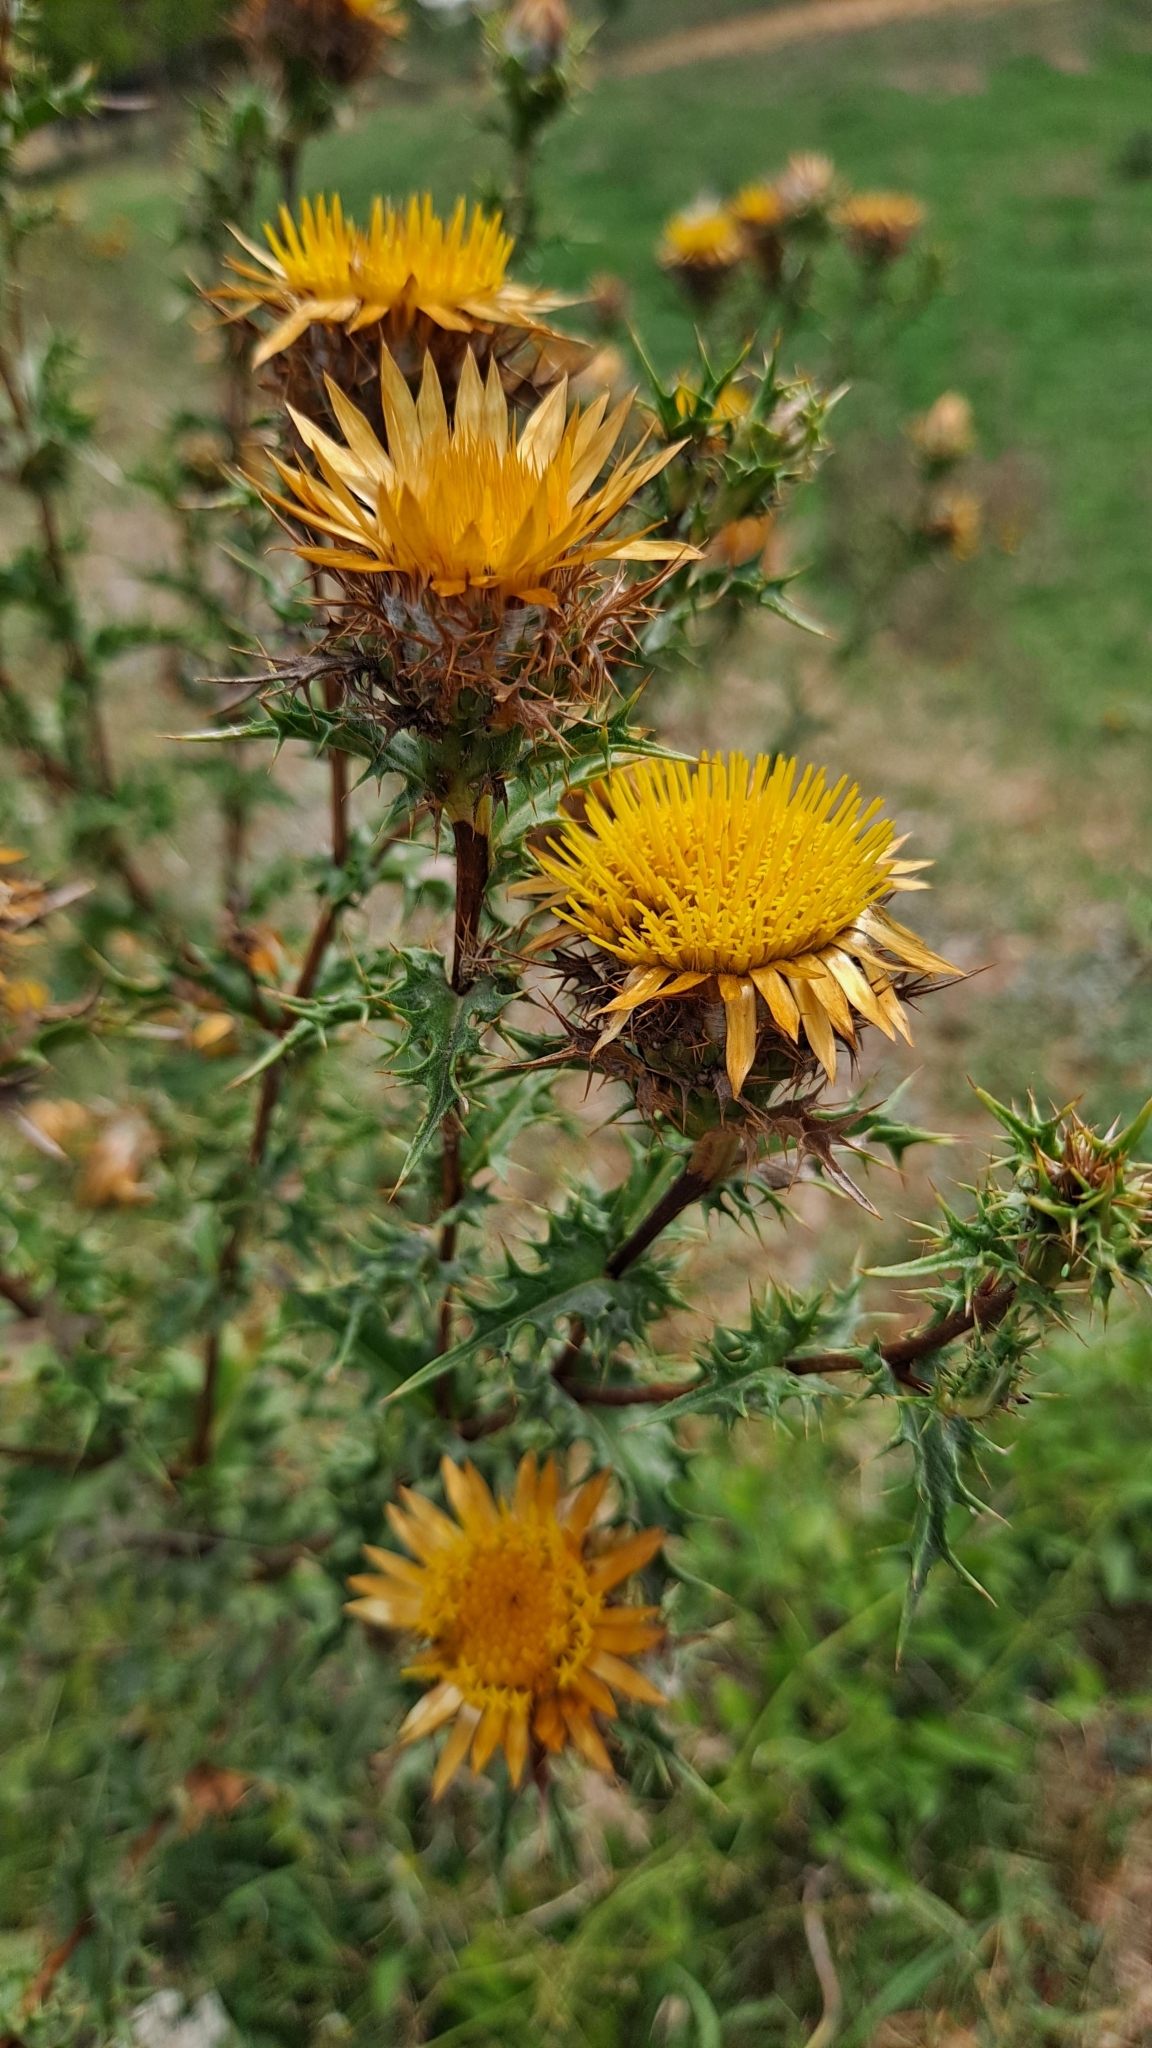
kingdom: Plantae
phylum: Tracheophyta
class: Magnoliopsida
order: Asterales
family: Asteraceae
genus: Carlina
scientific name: Carlina hispanica
